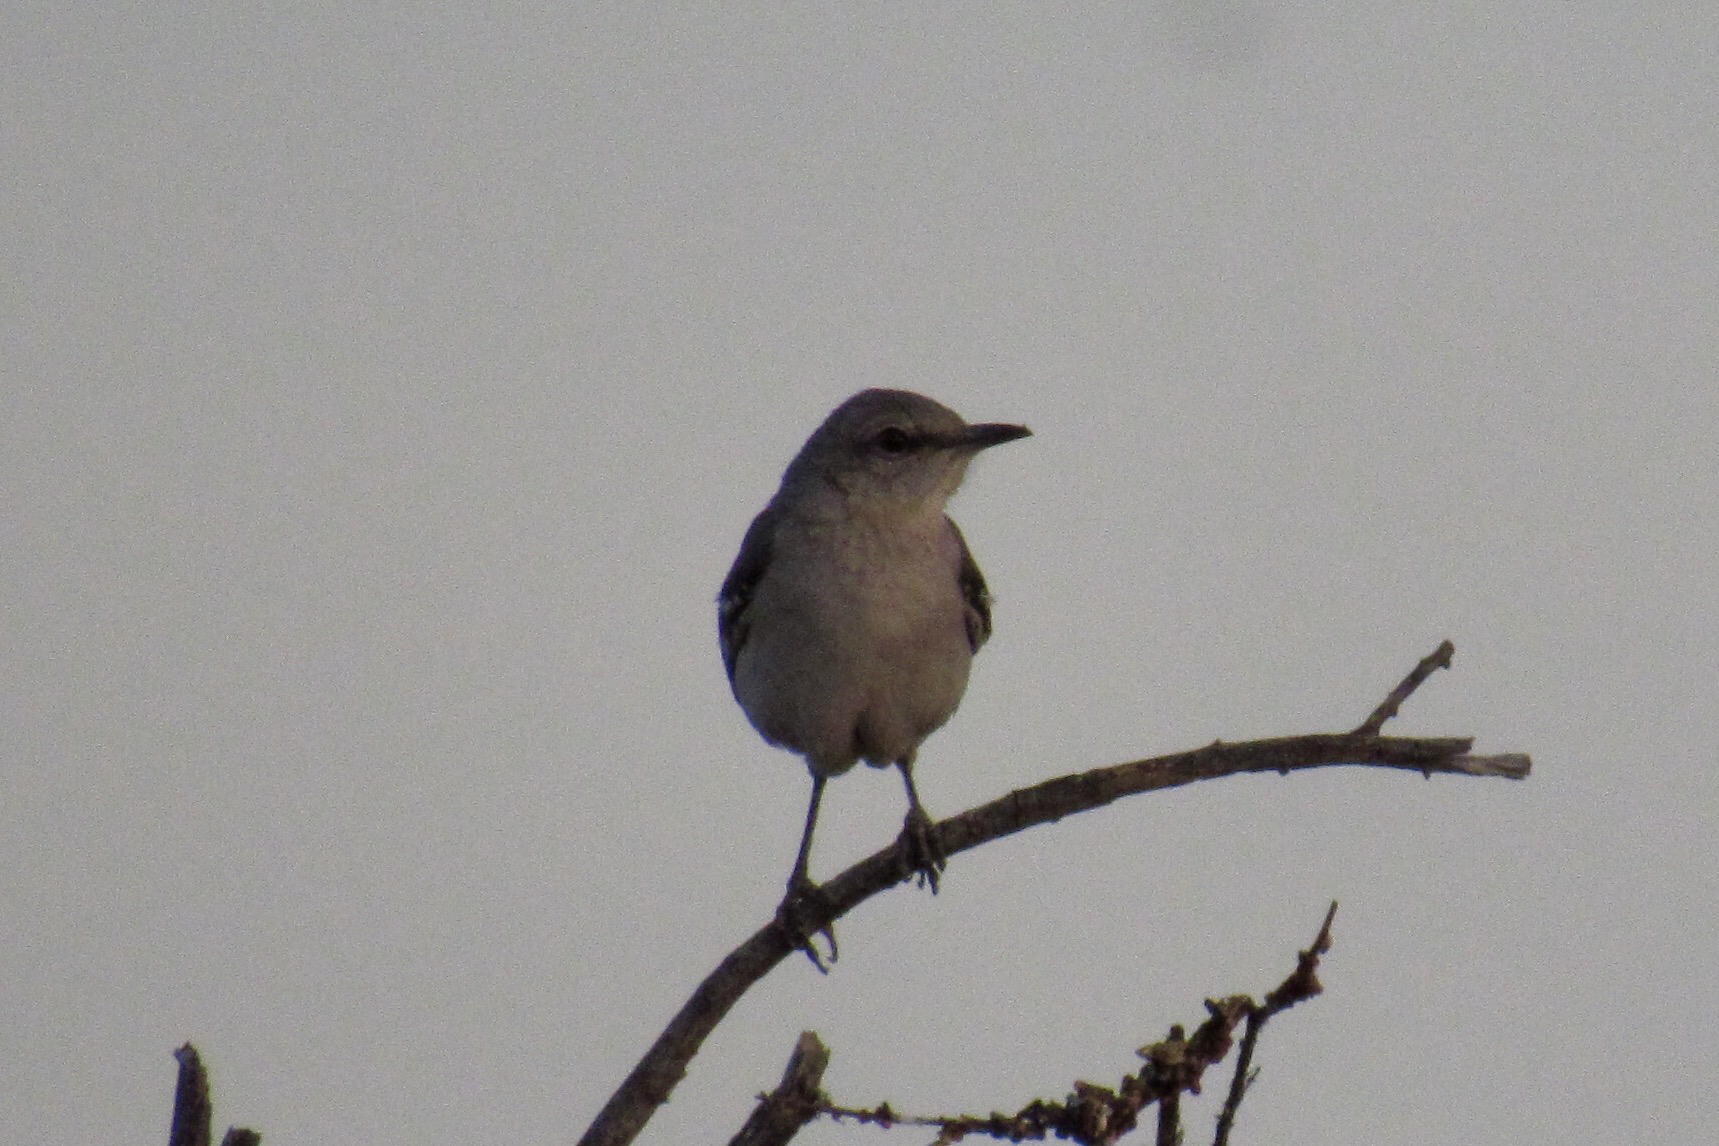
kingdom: Animalia
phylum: Chordata
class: Aves
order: Passeriformes
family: Mimidae
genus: Mimus
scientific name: Mimus polyglottos
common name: Northern mockingbird
